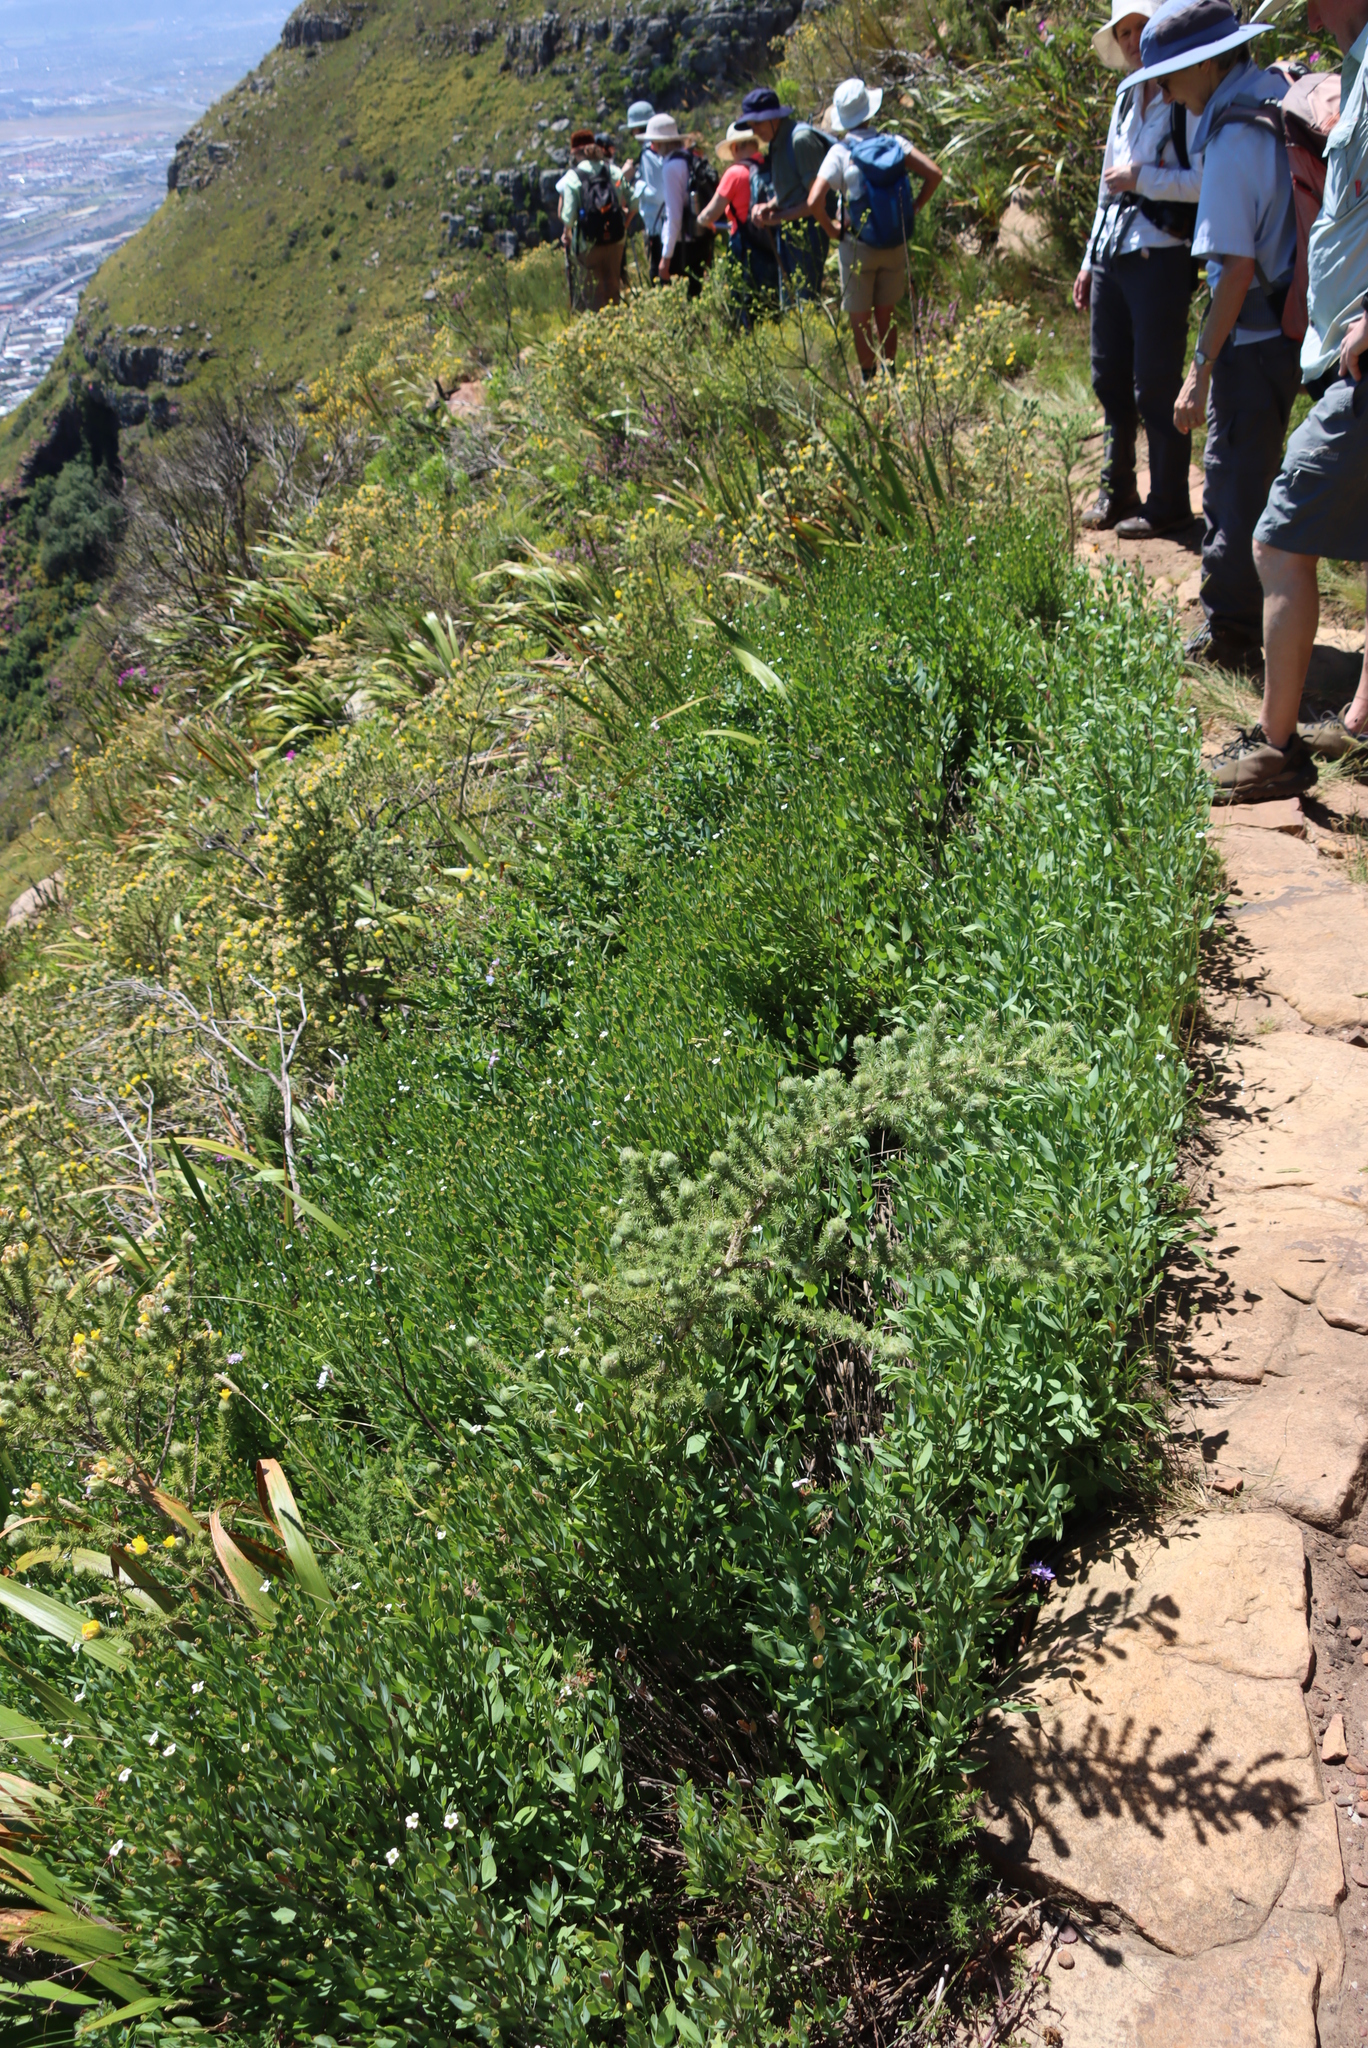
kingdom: Plantae
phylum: Tracheophyta
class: Magnoliopsida
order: Solanales
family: Montiniaceae
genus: Montinia
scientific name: Montinia caryophyllacea
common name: Wild clove-bush
